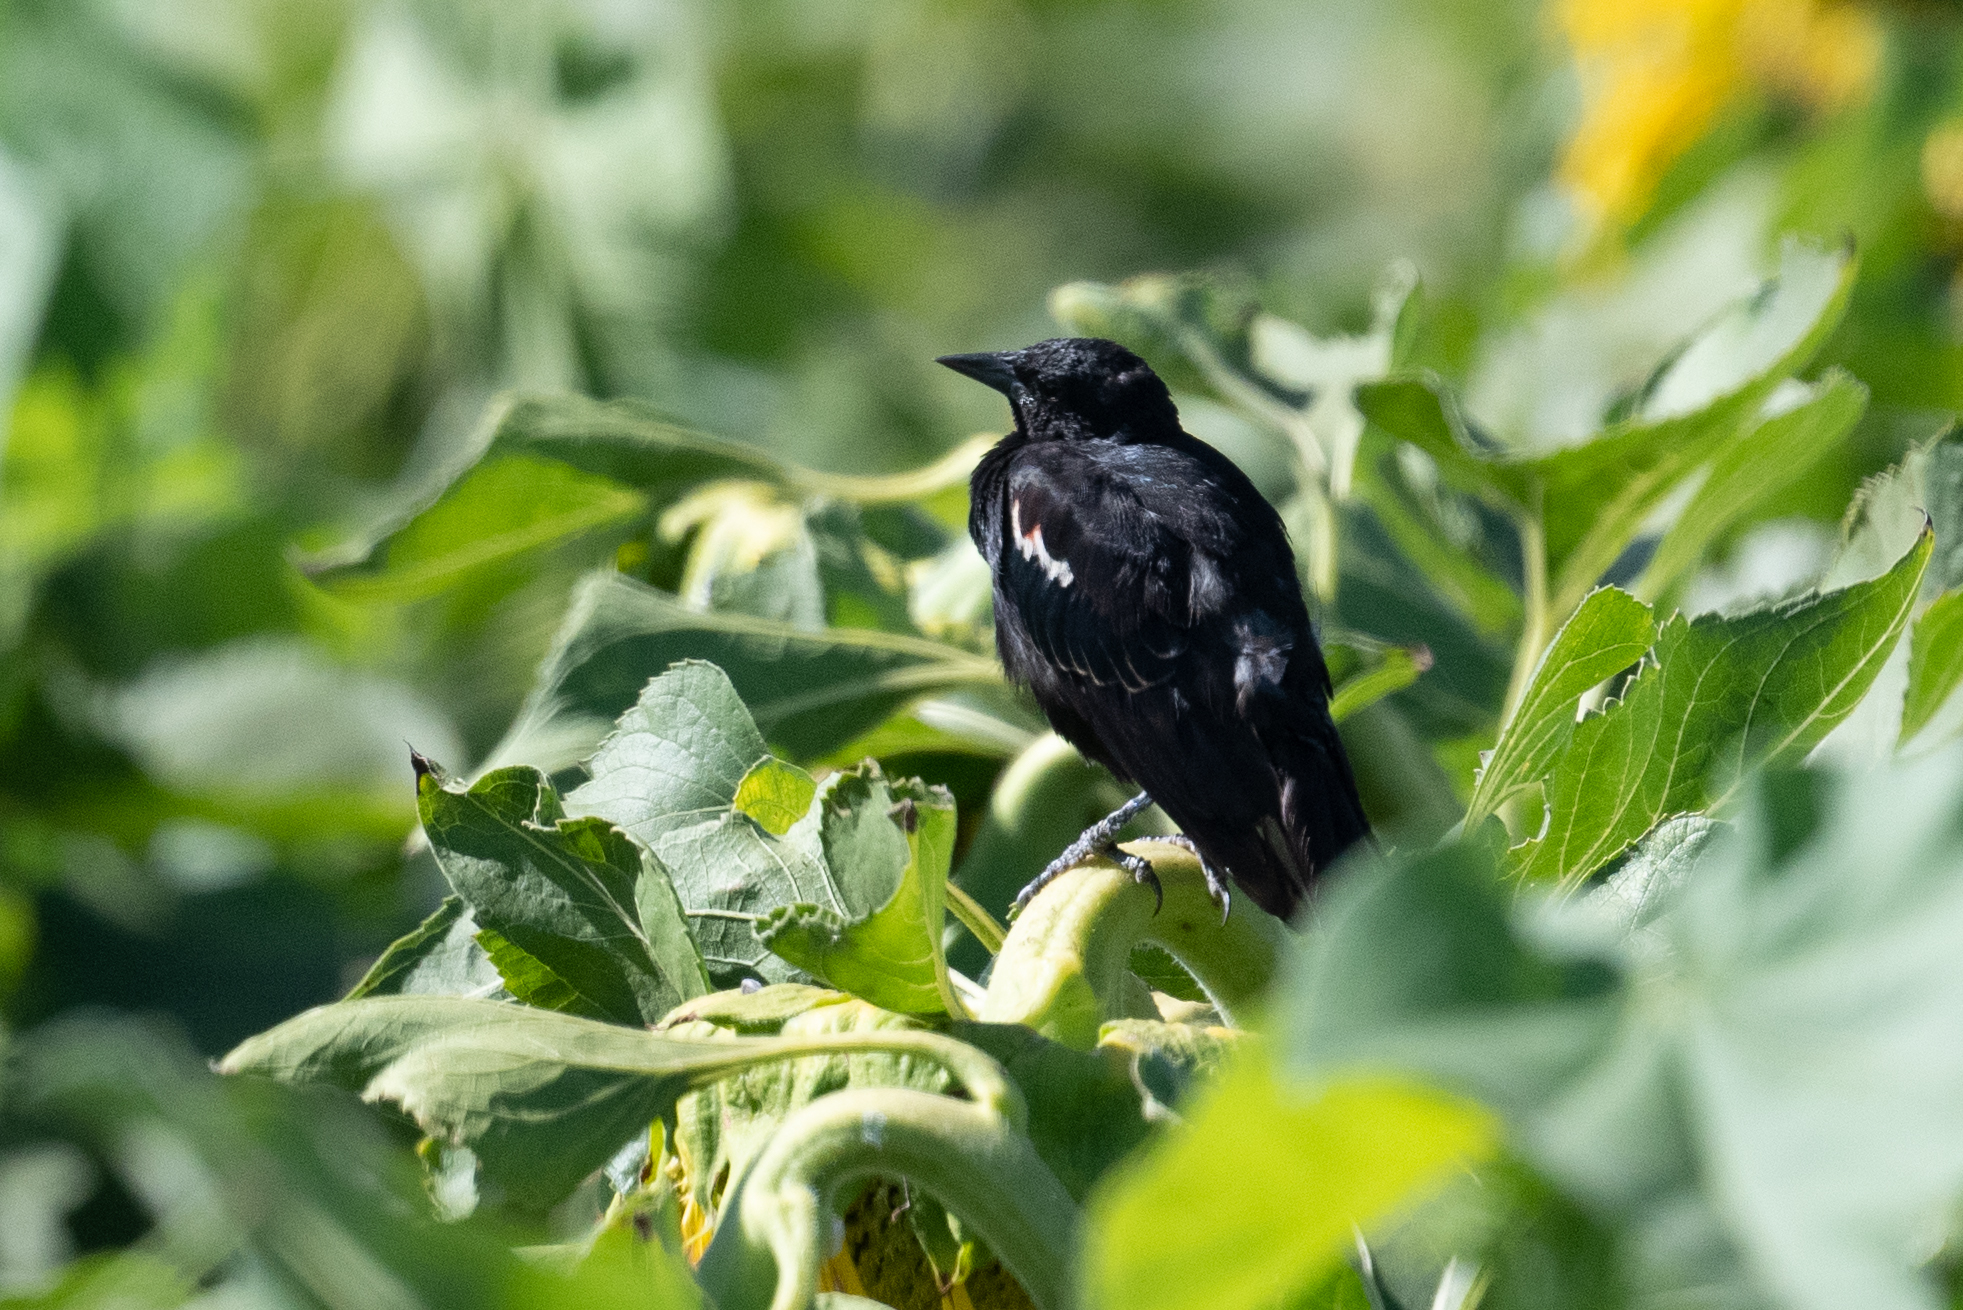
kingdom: Animalia
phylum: Chordata
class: Aves
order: Passeriformes
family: Icteridae
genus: Agelaius
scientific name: Agelaius tricolor
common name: Tricolored blackbird
